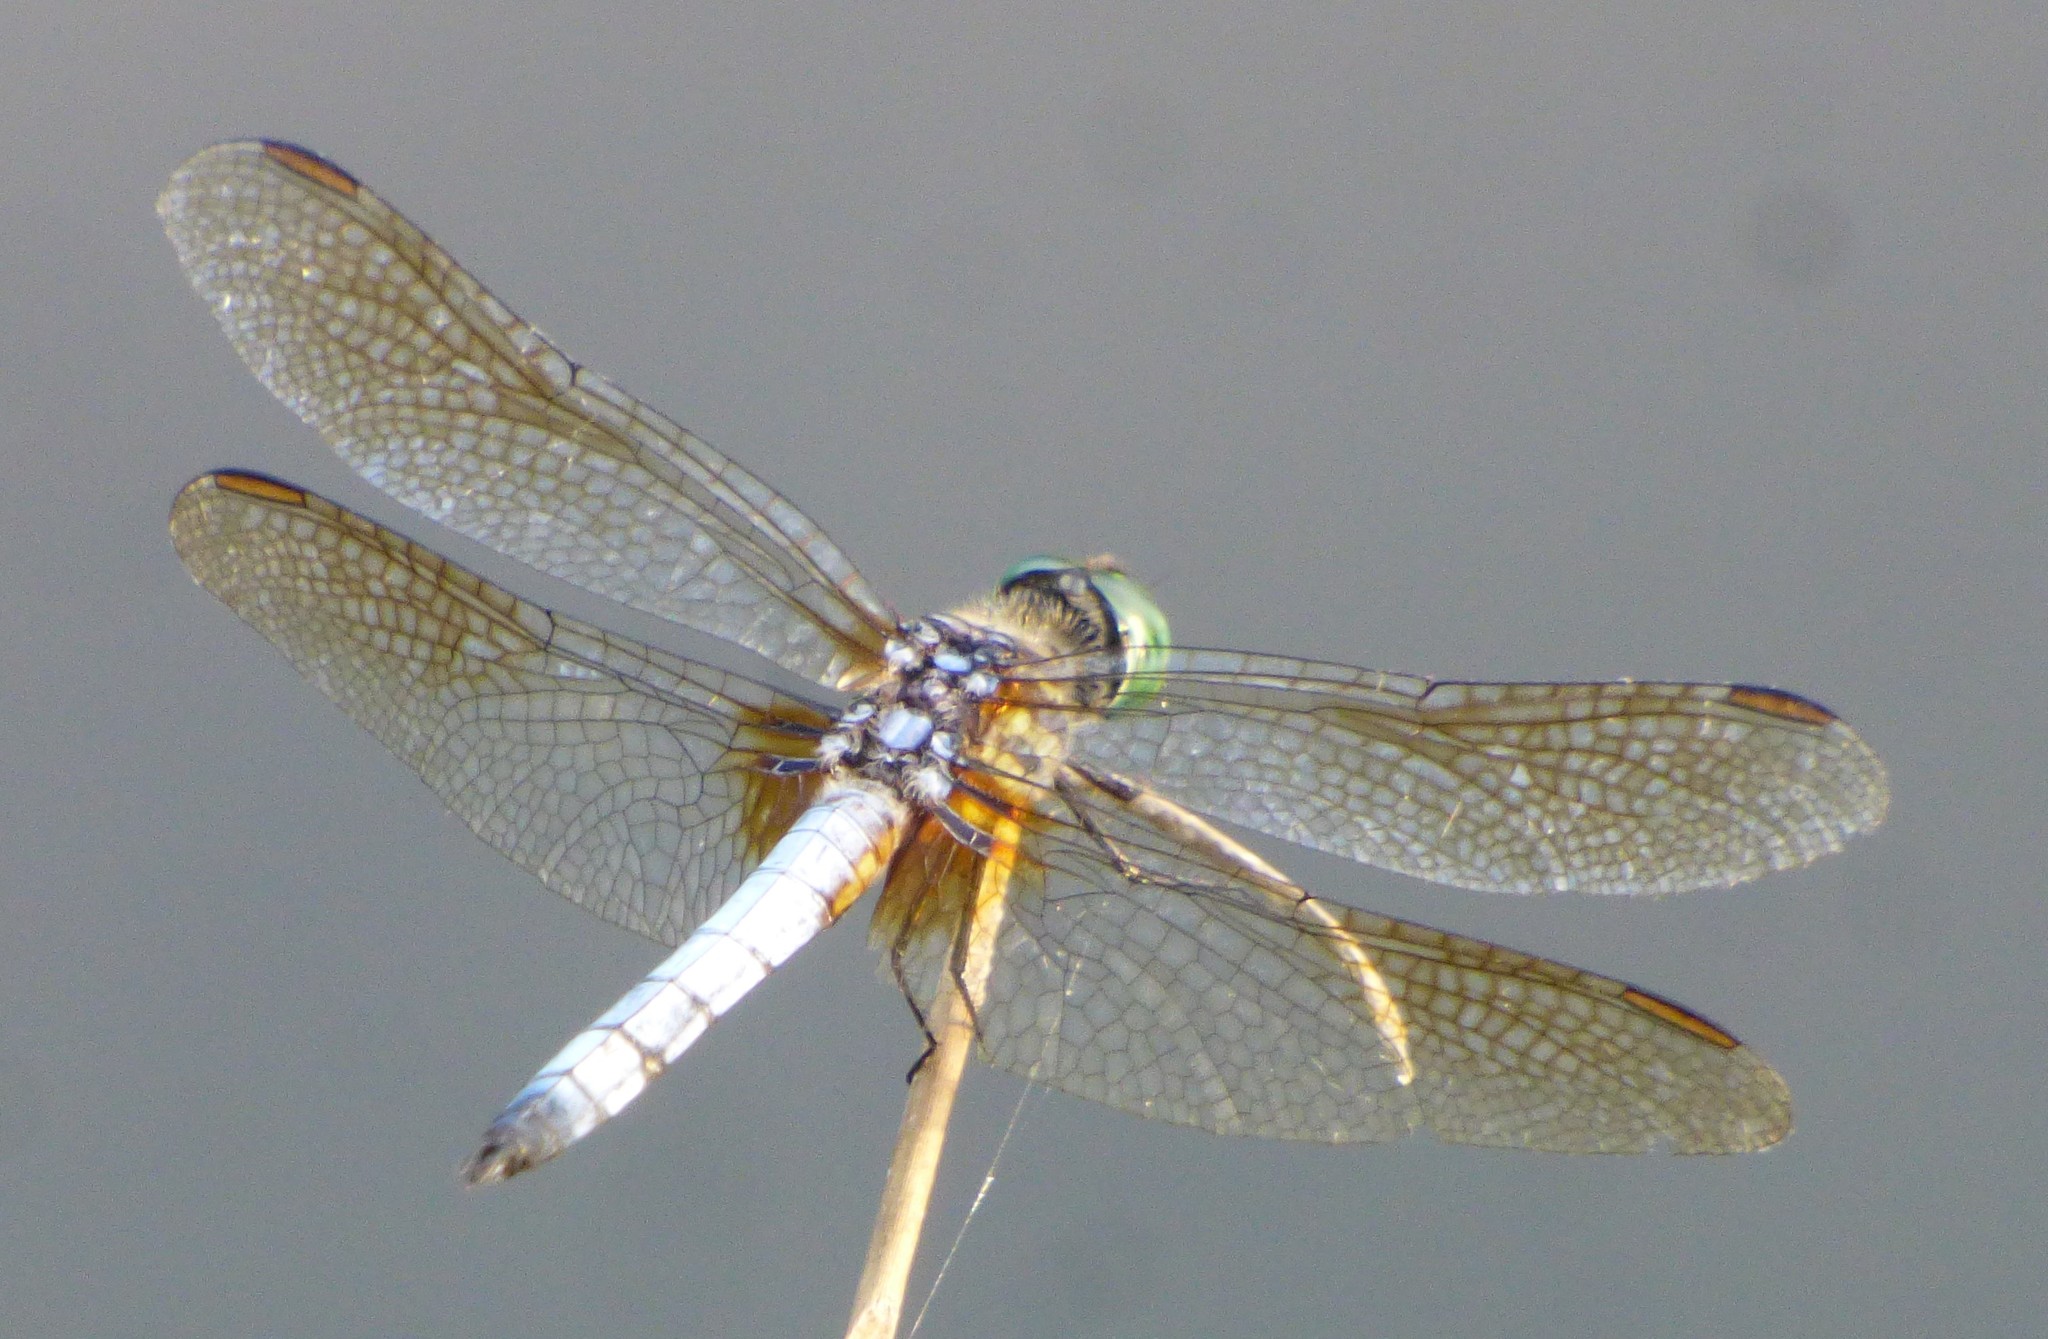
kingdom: Animalia
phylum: Arthropoda
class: Insecta
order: Odonata
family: Libellulidae
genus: Pachydiplax
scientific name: Pachydiplax longipennis
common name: Blue dasher
